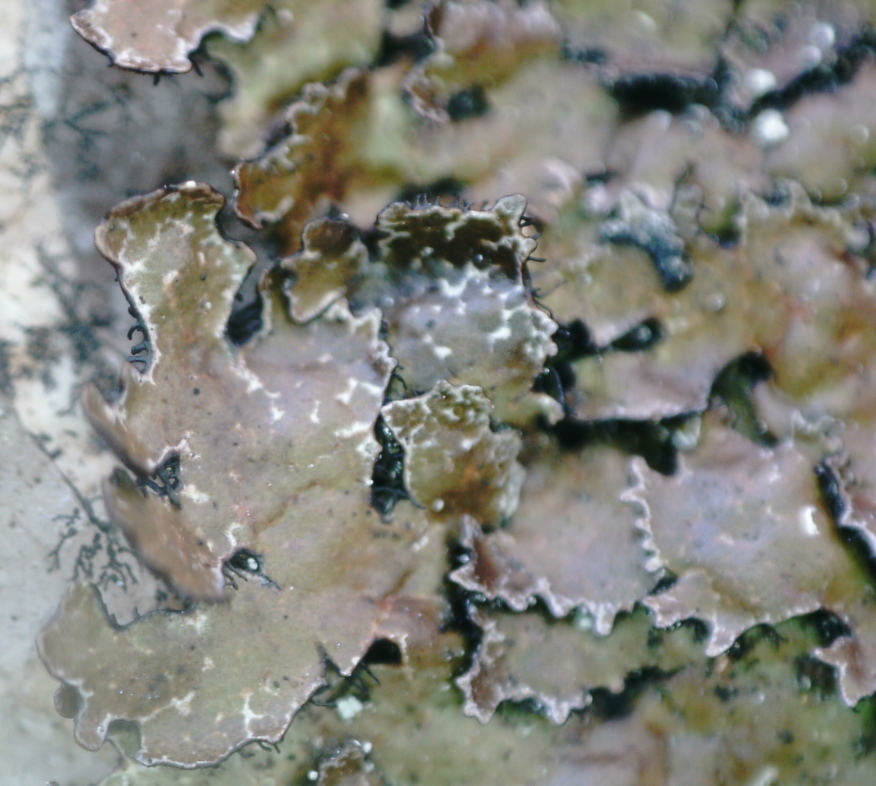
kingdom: Fungi
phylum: Ascomycota
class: Lecanoromycetes
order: Lecanorales
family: Parmeliaceae
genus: Parmelia
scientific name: Parmelia discordans
